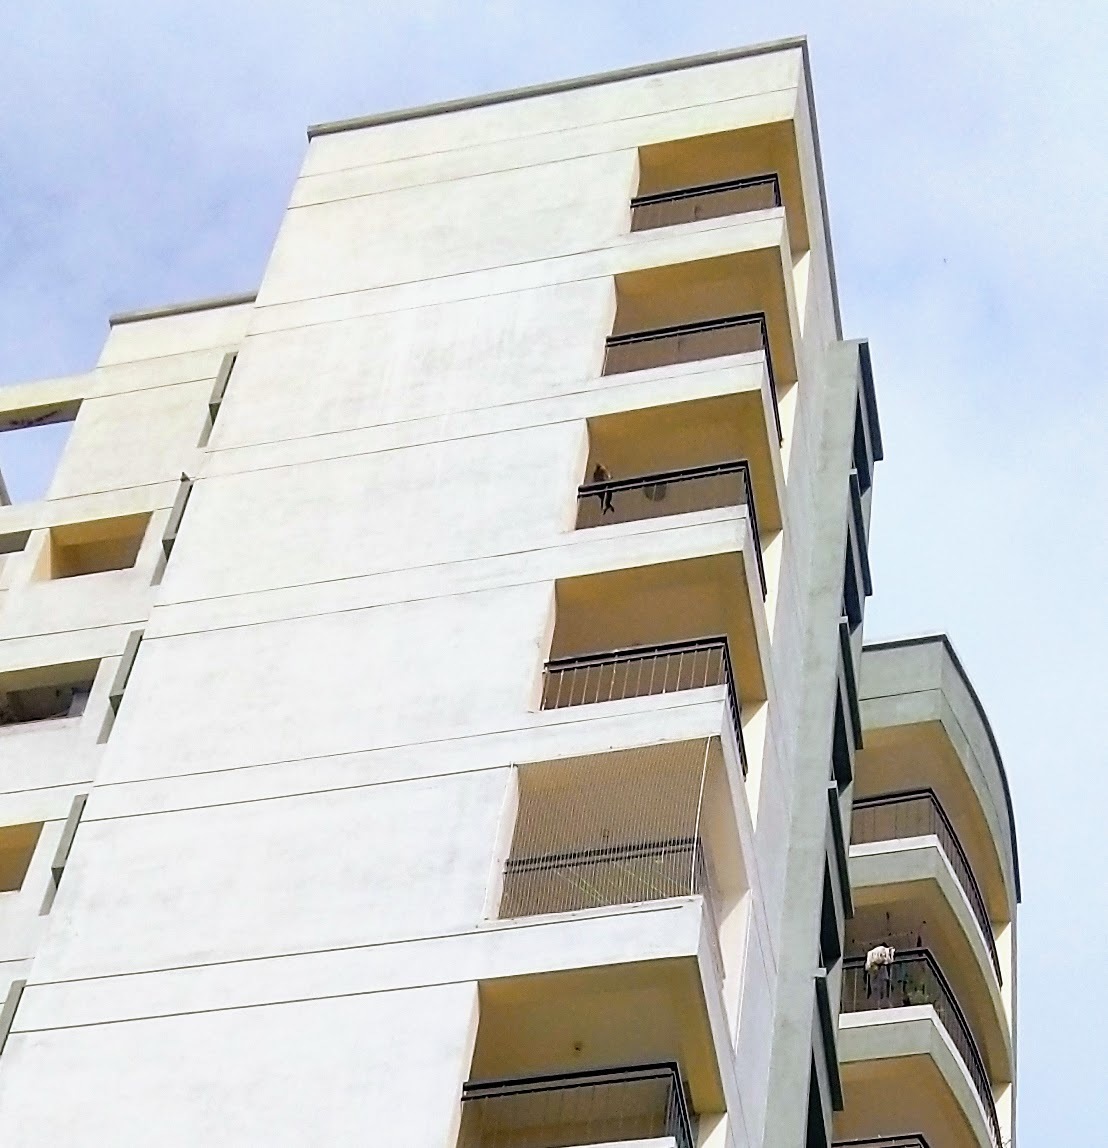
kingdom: Animalia
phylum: Chordata
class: Aves
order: Accipitriformes
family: Accipitridae
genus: Milvus
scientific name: Milvus migrans
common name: Black kite
